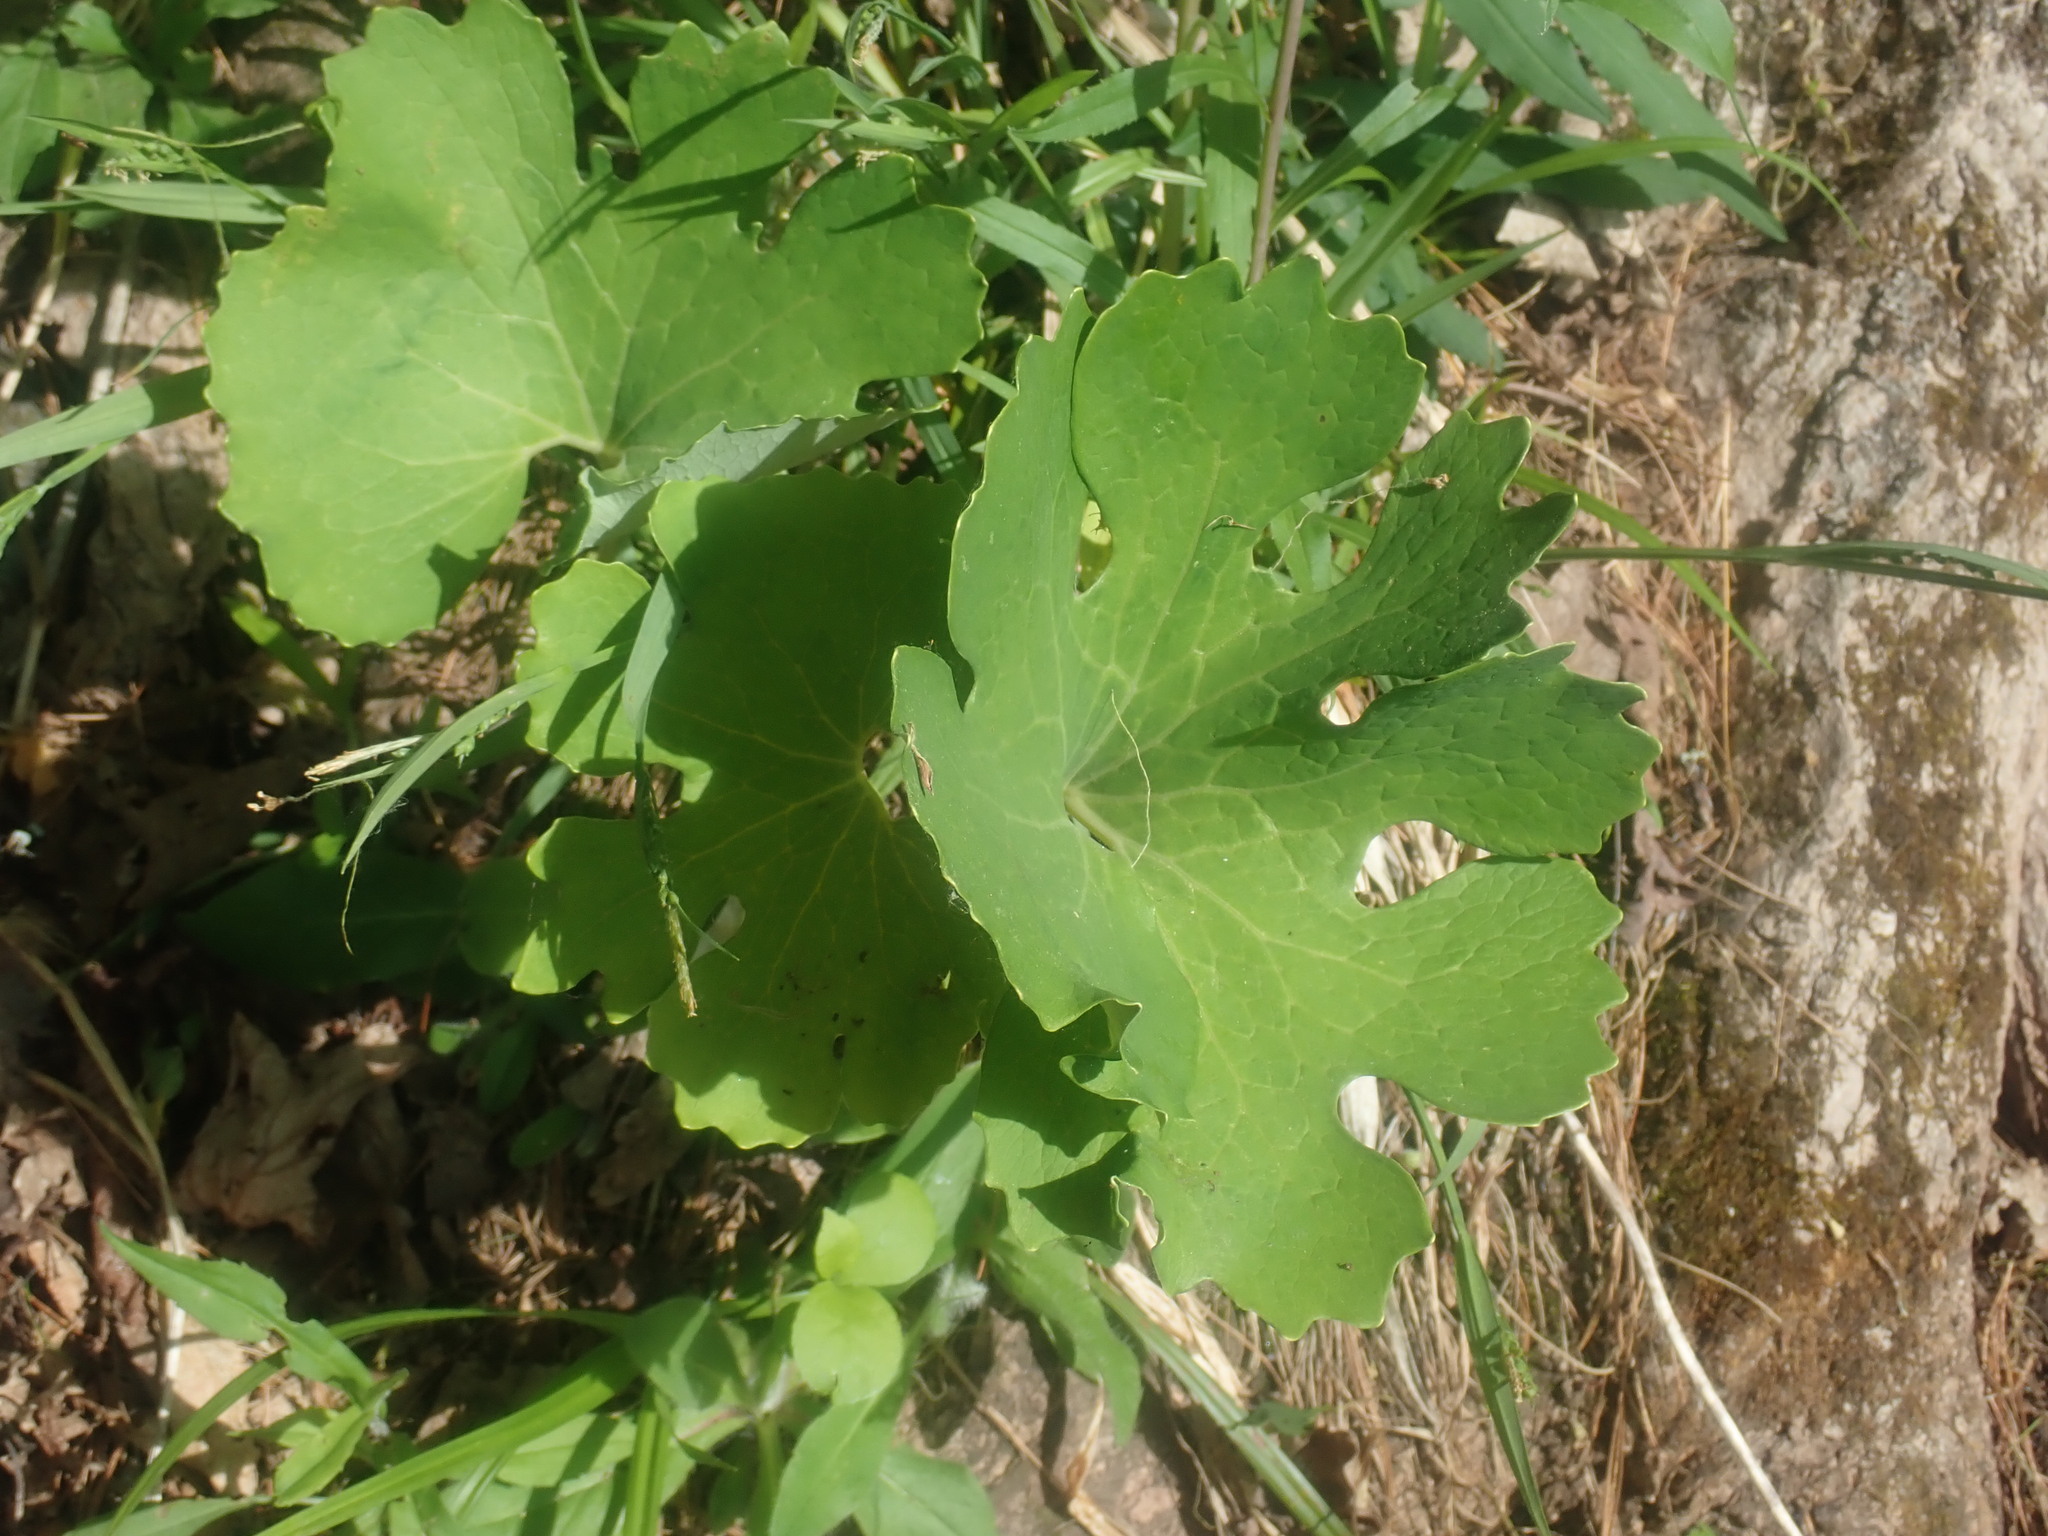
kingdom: Plantae
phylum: Tracheophyta
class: Magnoliopsida
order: Ranunculales
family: Papaveraceae
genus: Sanguinaria
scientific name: Sanguinaria canadensis
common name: Bloodroot
